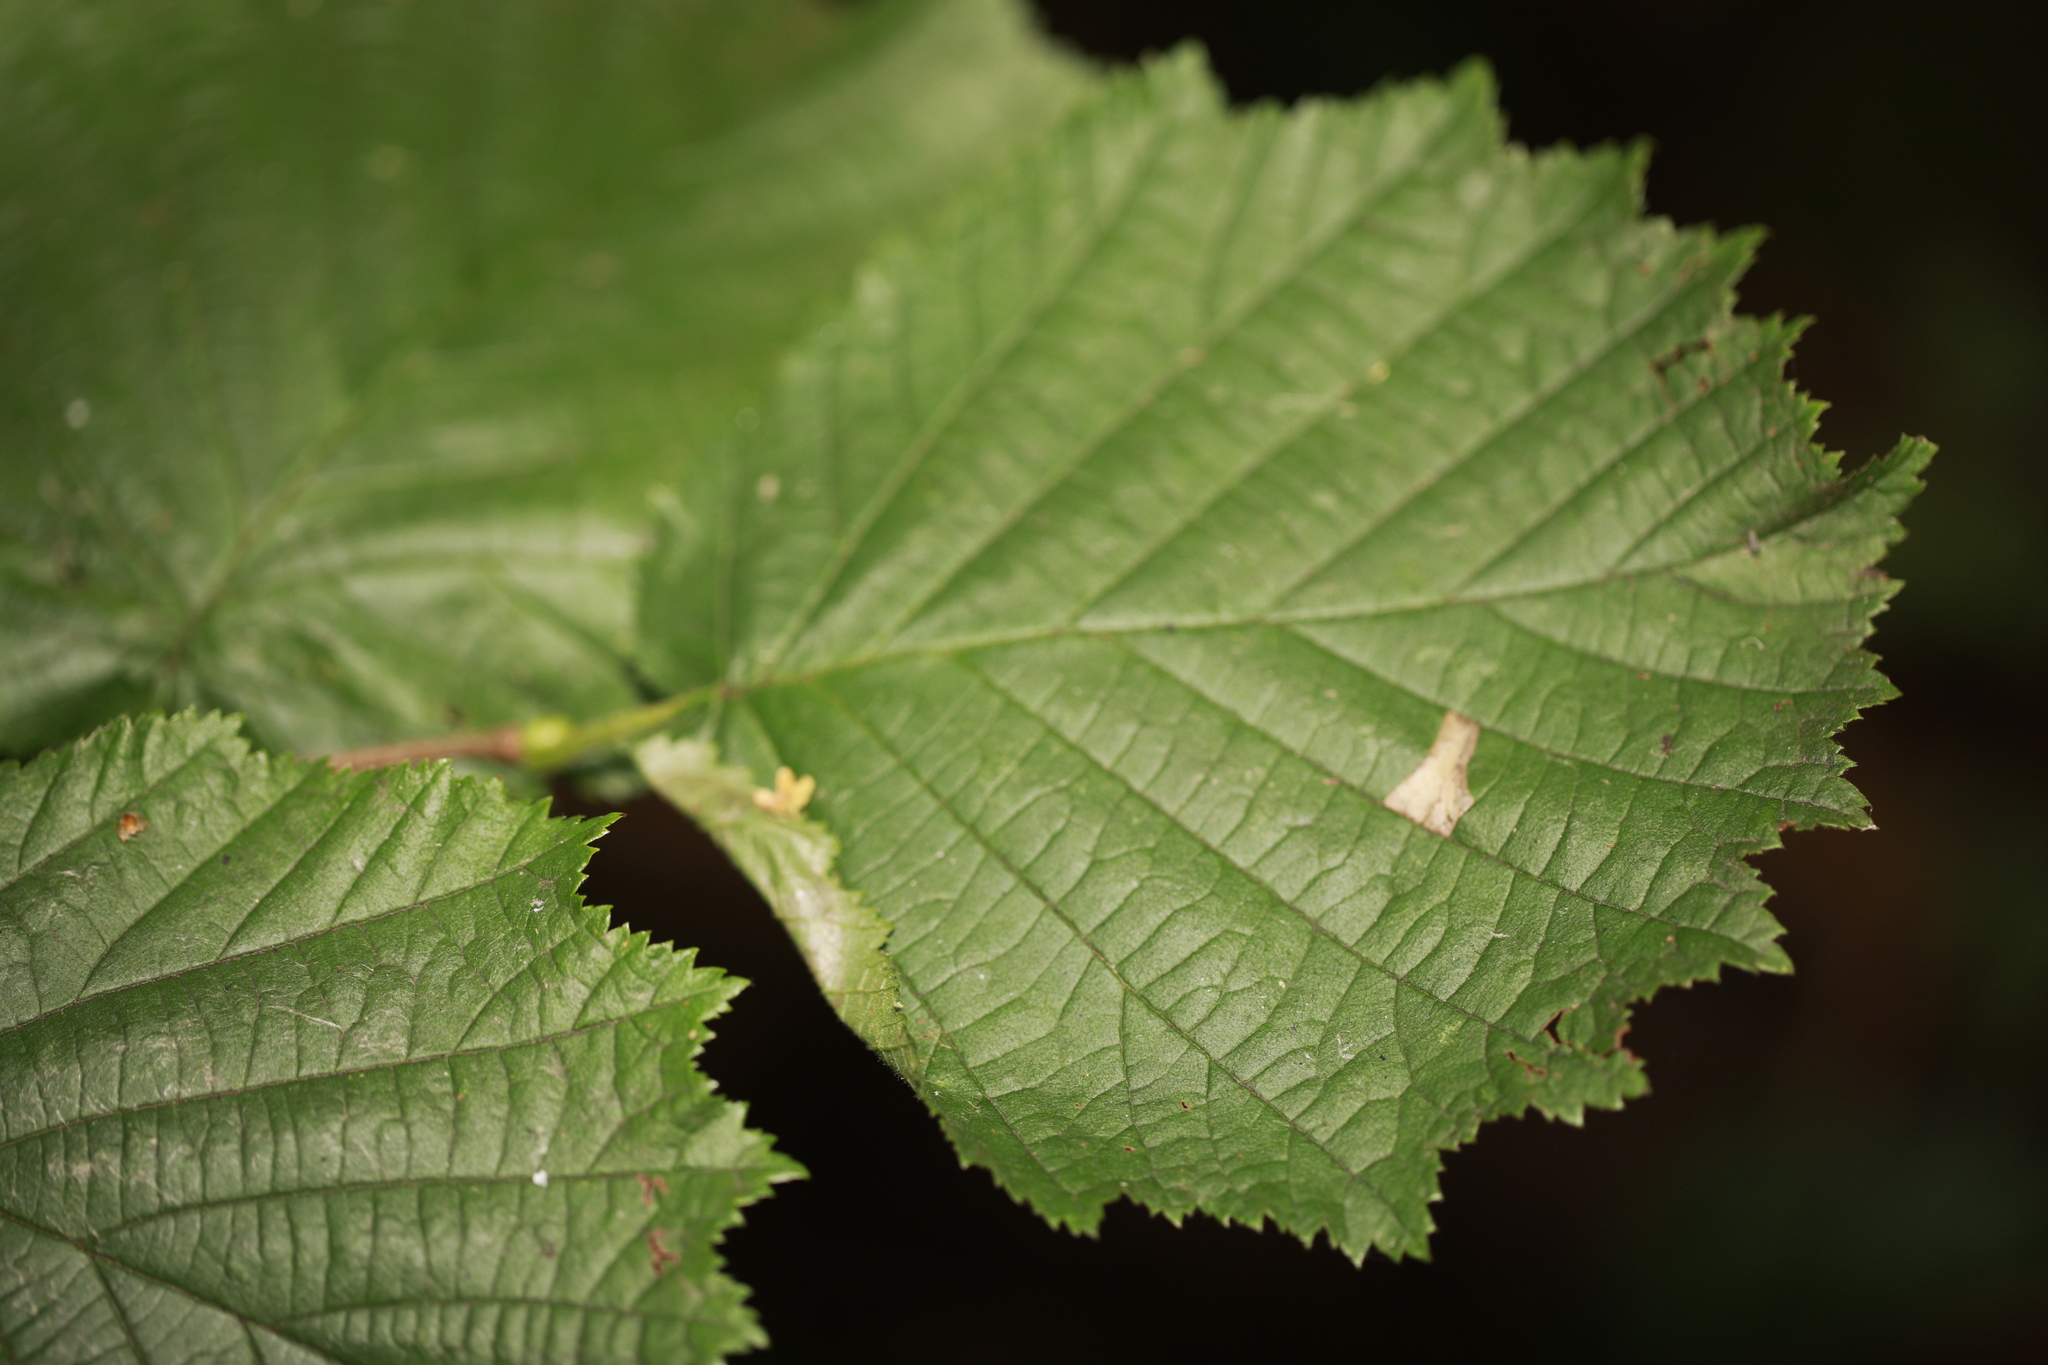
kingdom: Animalia
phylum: Arthropoda
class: Insecta
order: Lepidoptera
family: Gracillariidae
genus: Parornix
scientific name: Parornix devoniella
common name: Hazel slender
